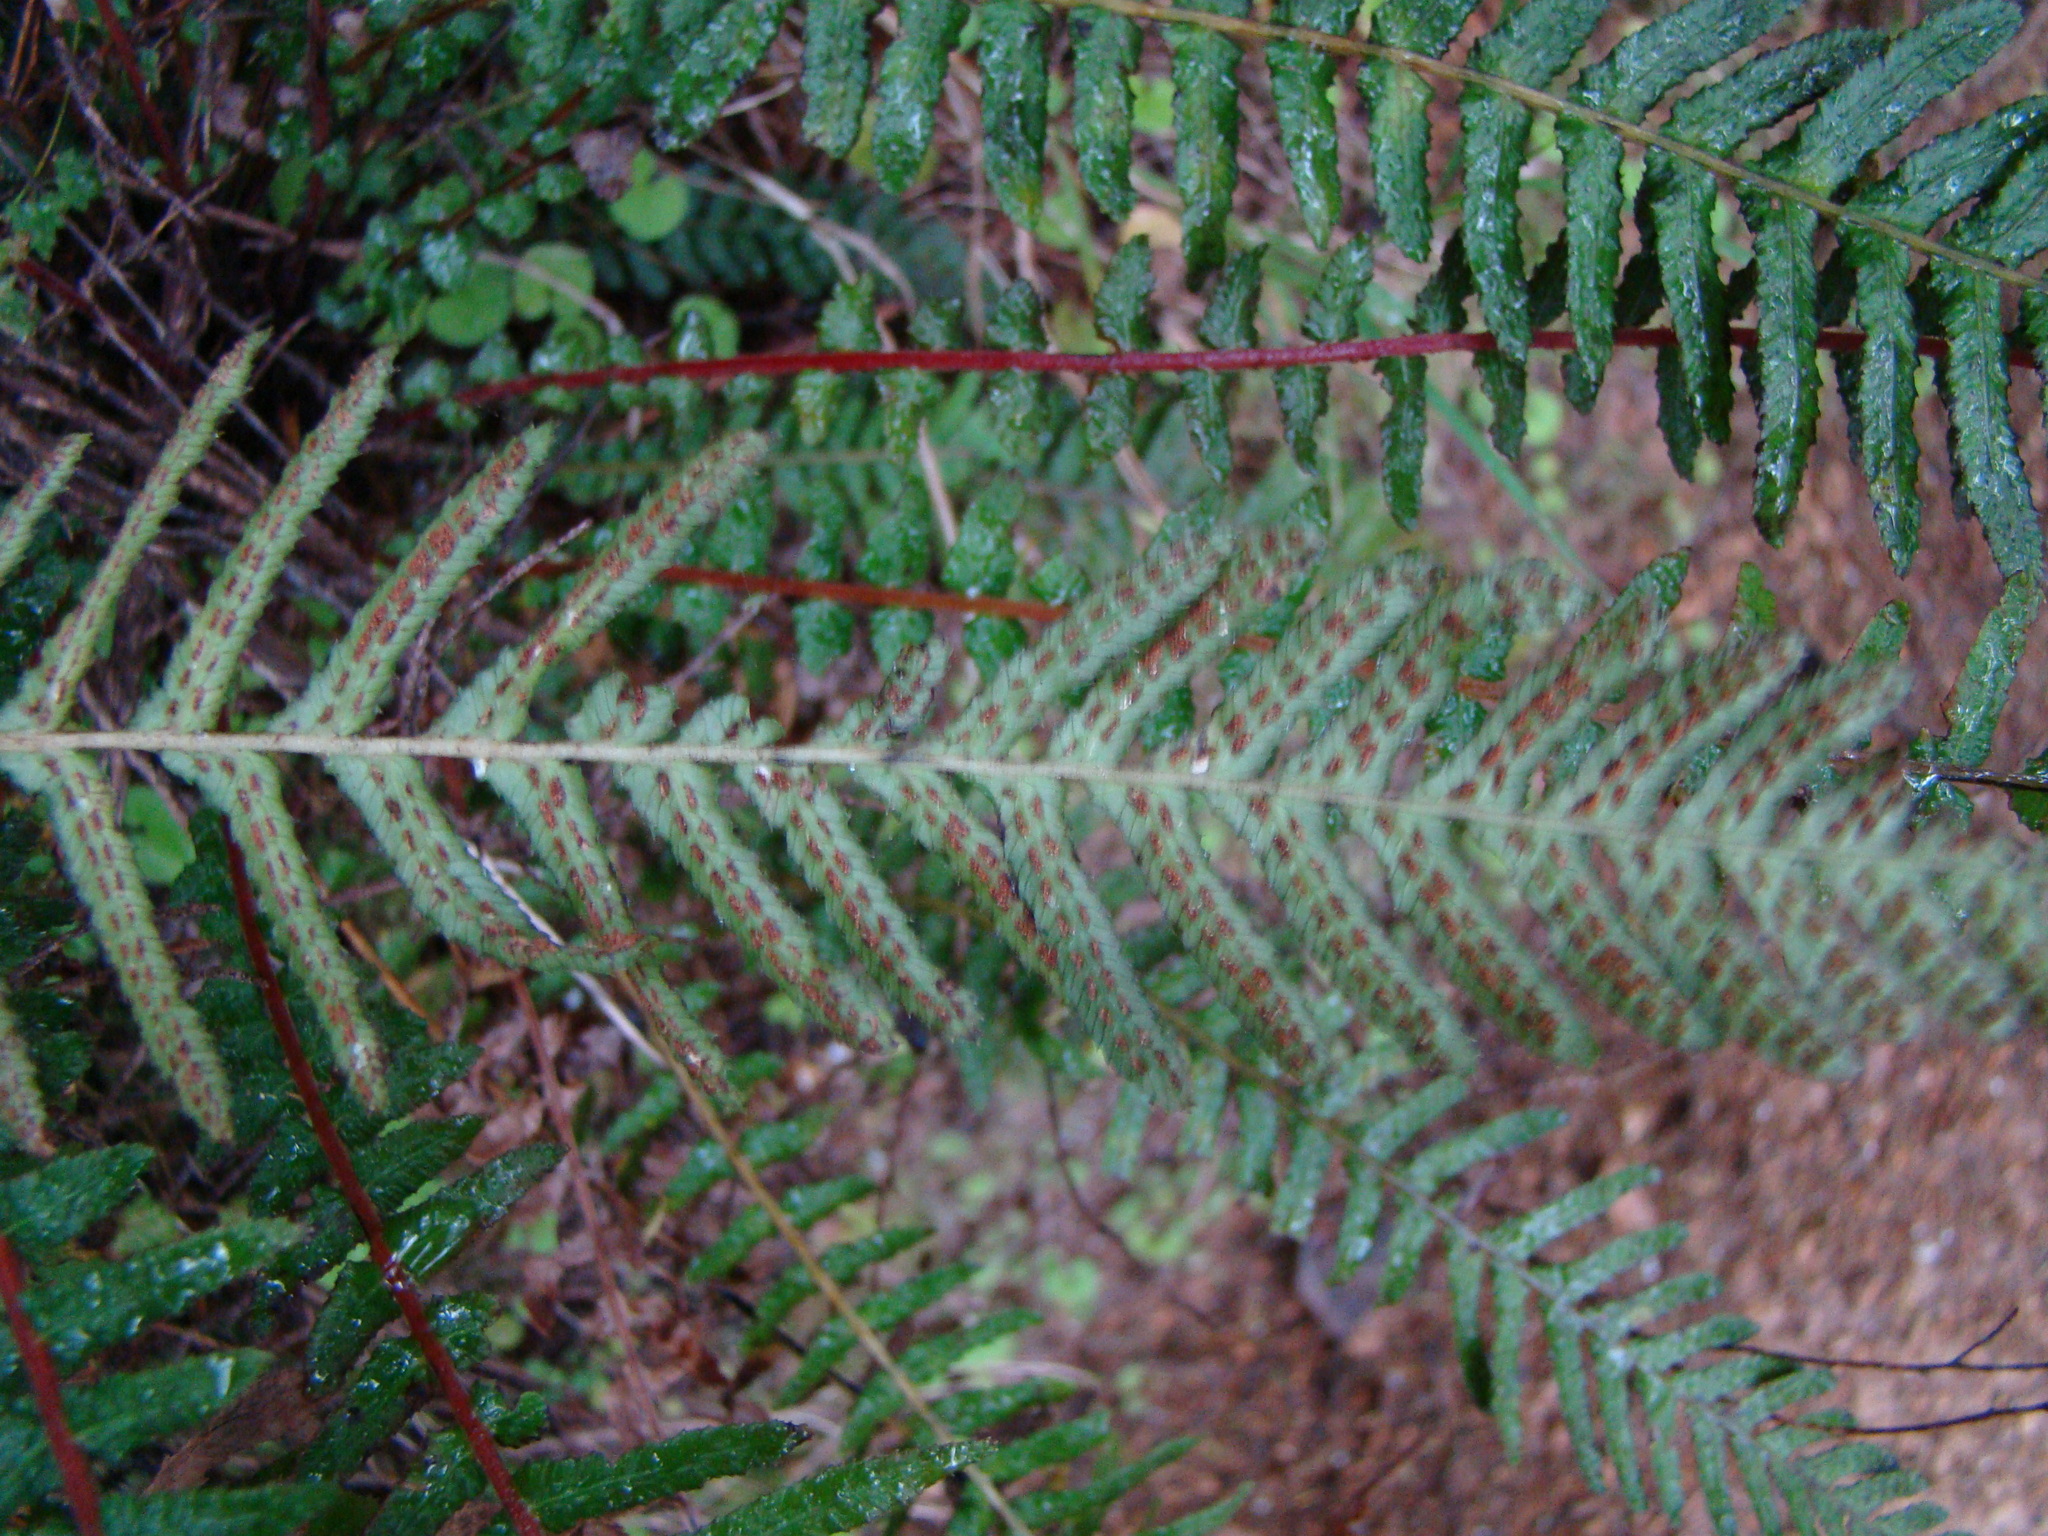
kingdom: Plantae
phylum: Tracheophyta
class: Polypodiopsida
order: Polypodiales
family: Blechnaceae
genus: Doodia
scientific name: Doodia australis
